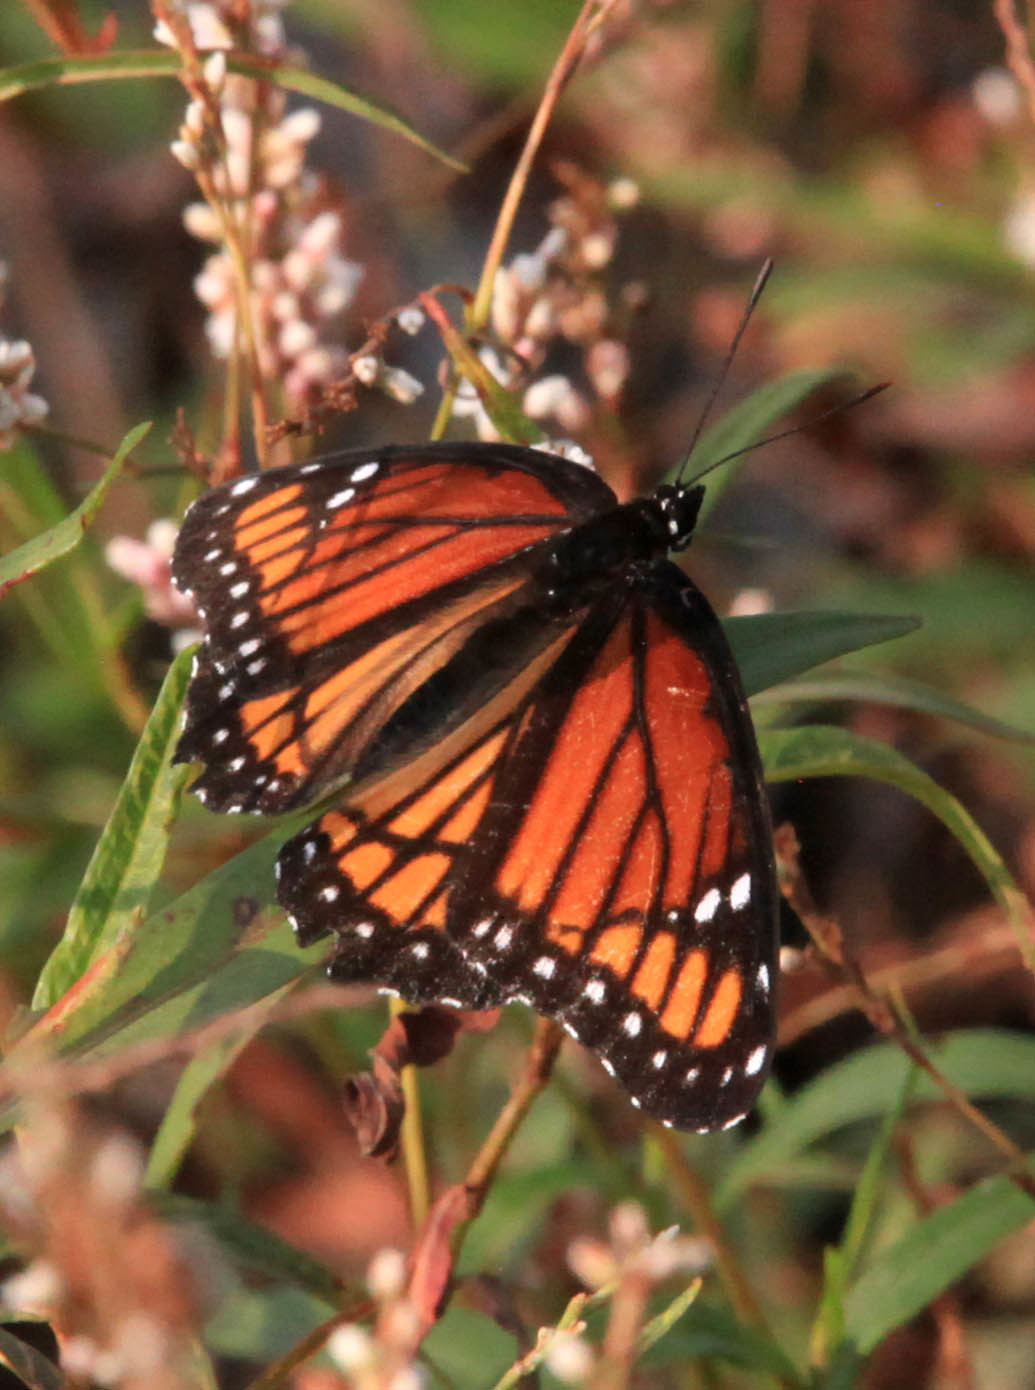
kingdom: Animalia
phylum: Arthropoda
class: Insecta
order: Lepidoptera
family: Nymphalidae
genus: Limenitis
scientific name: Limenitis archippus
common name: Viceroy
